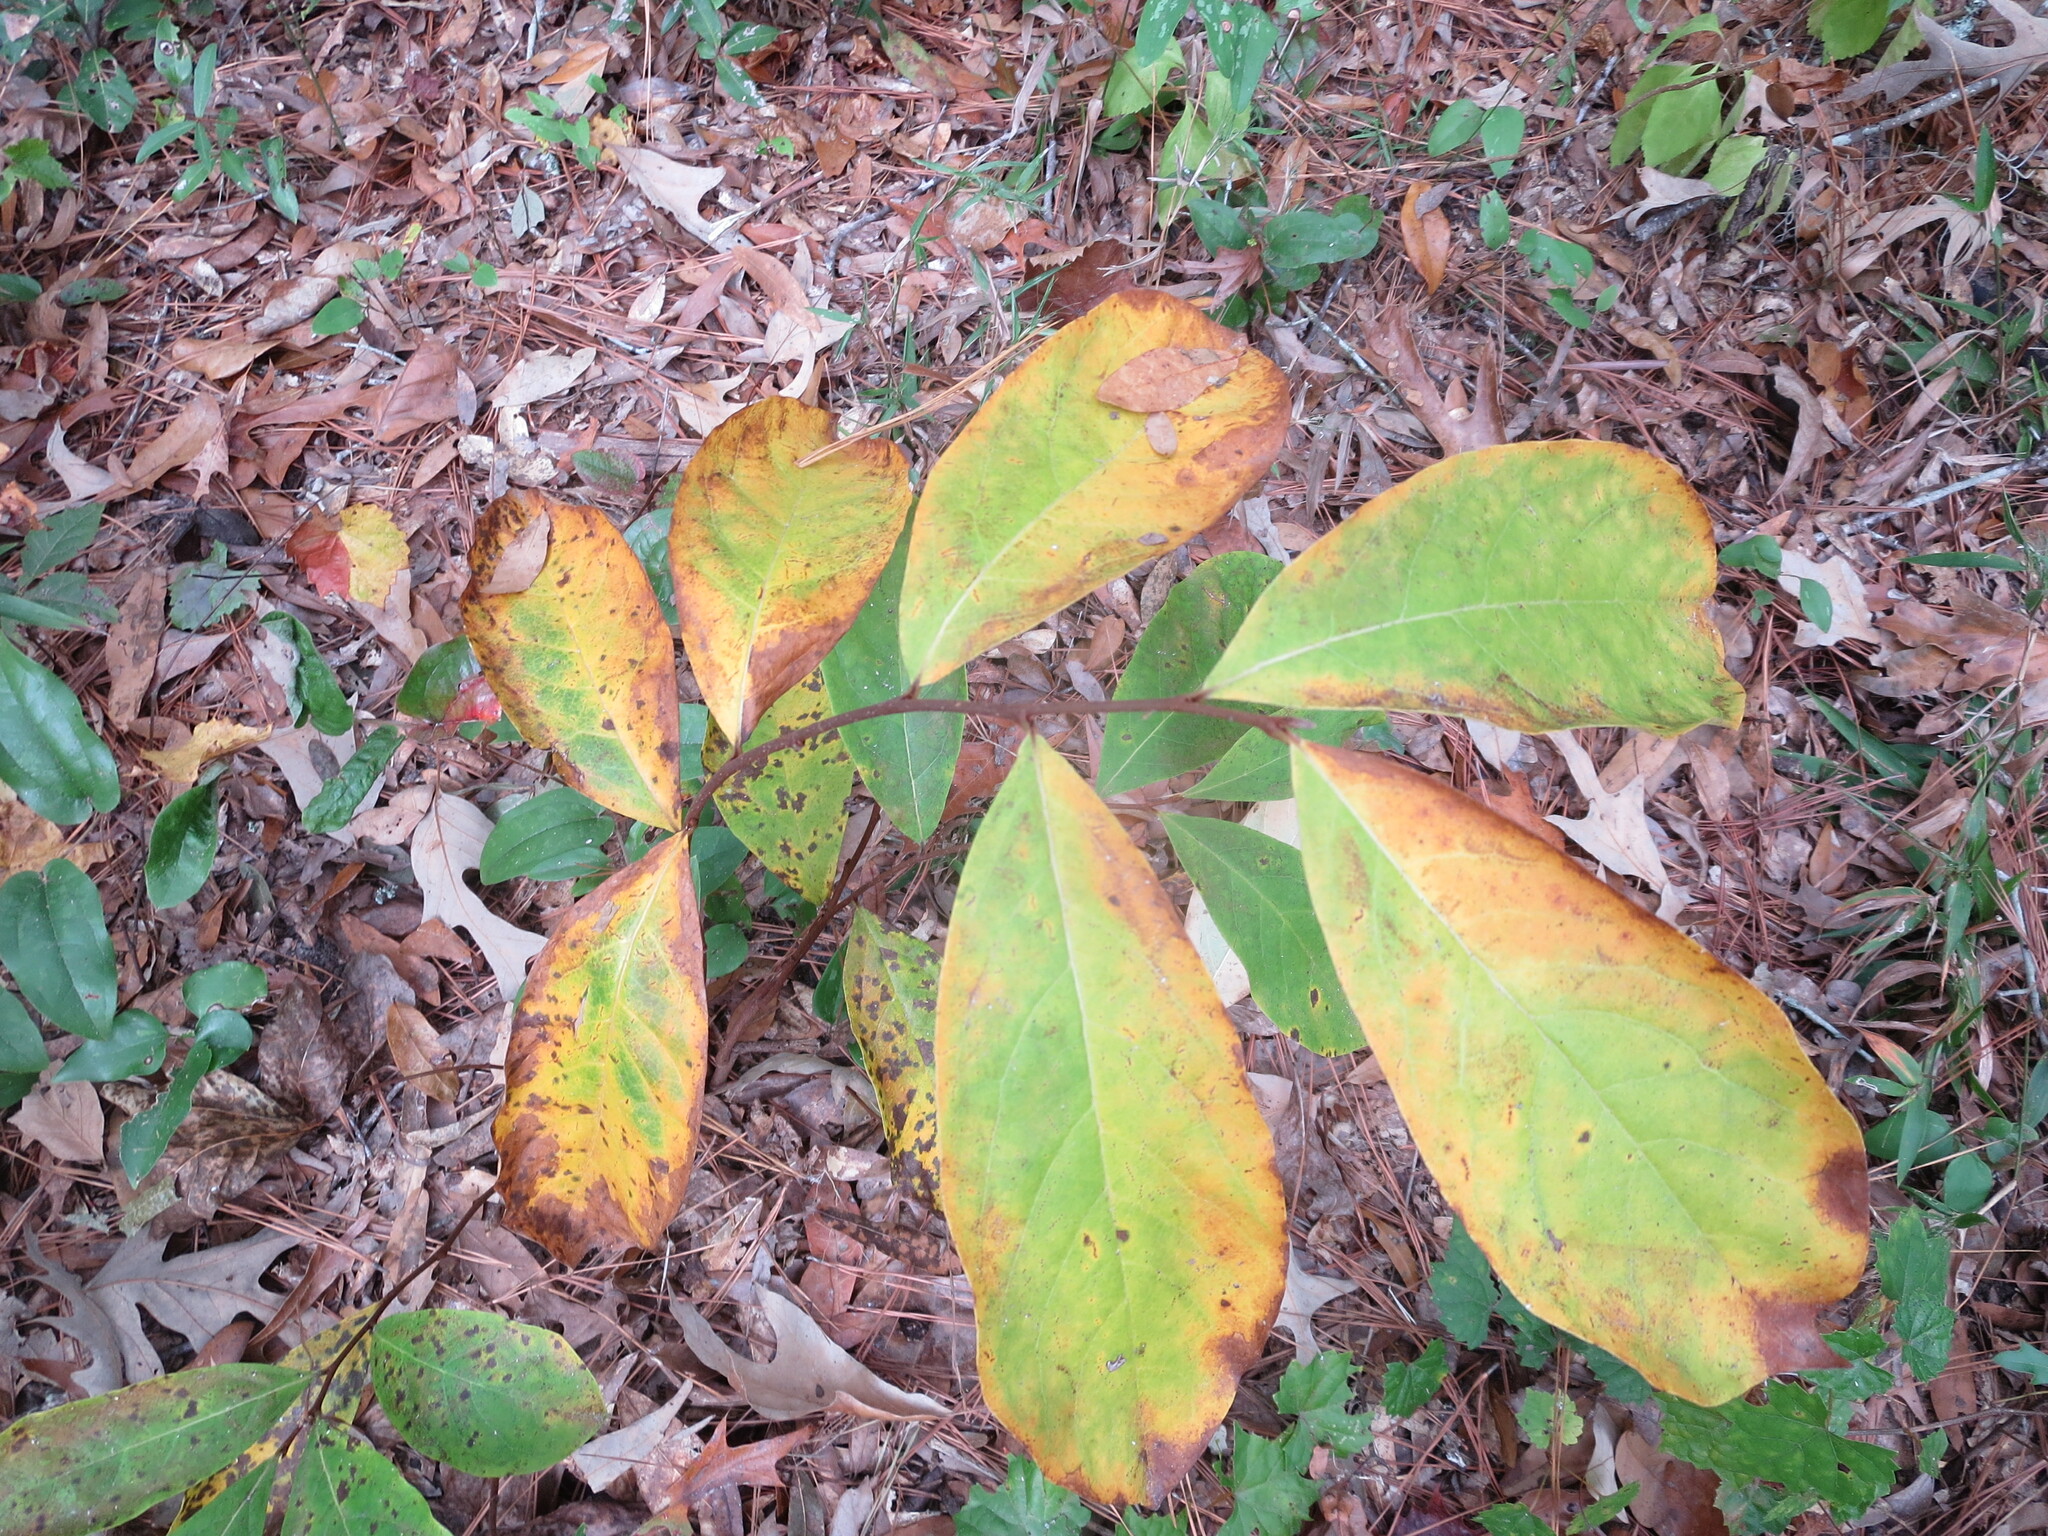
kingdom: Plantae
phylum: Tracheophyta
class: Magnoliopsida
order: Magnoliales
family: Annonaceae
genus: Asimina
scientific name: Asimina parviflora
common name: Dwarf pawpaw
